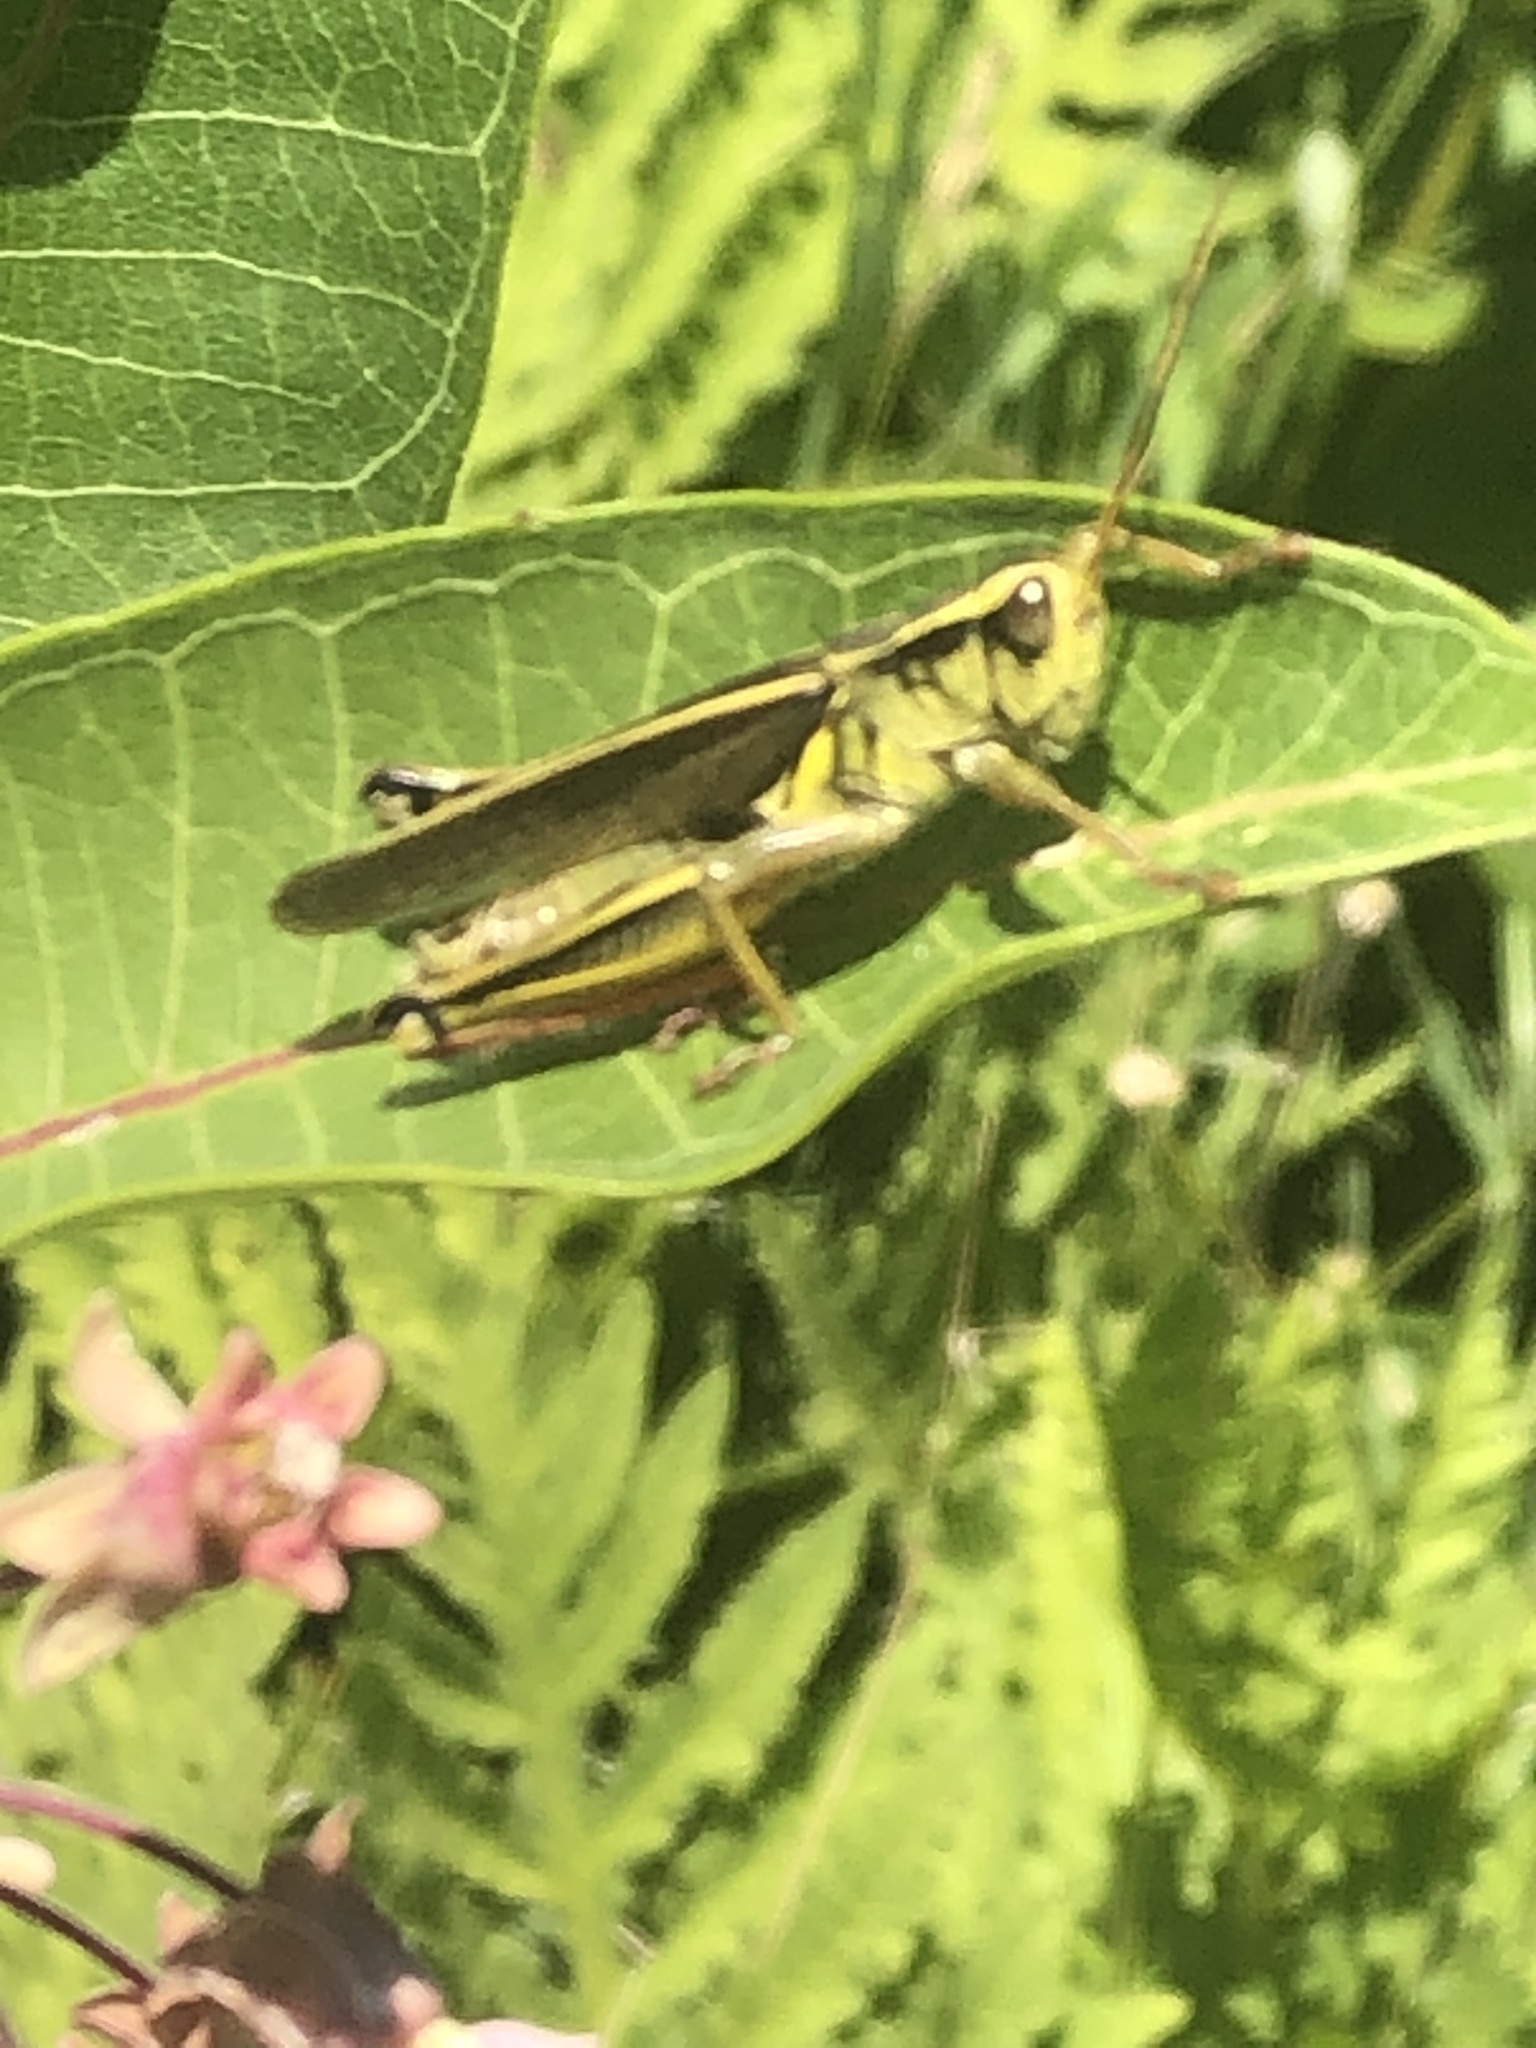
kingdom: Animalia
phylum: Arthropoda
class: Insecta
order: Orthoptera
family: Acrididae
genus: Melanoplus
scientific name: Melanoplus bivittatus
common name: Two-striped grasshopper
